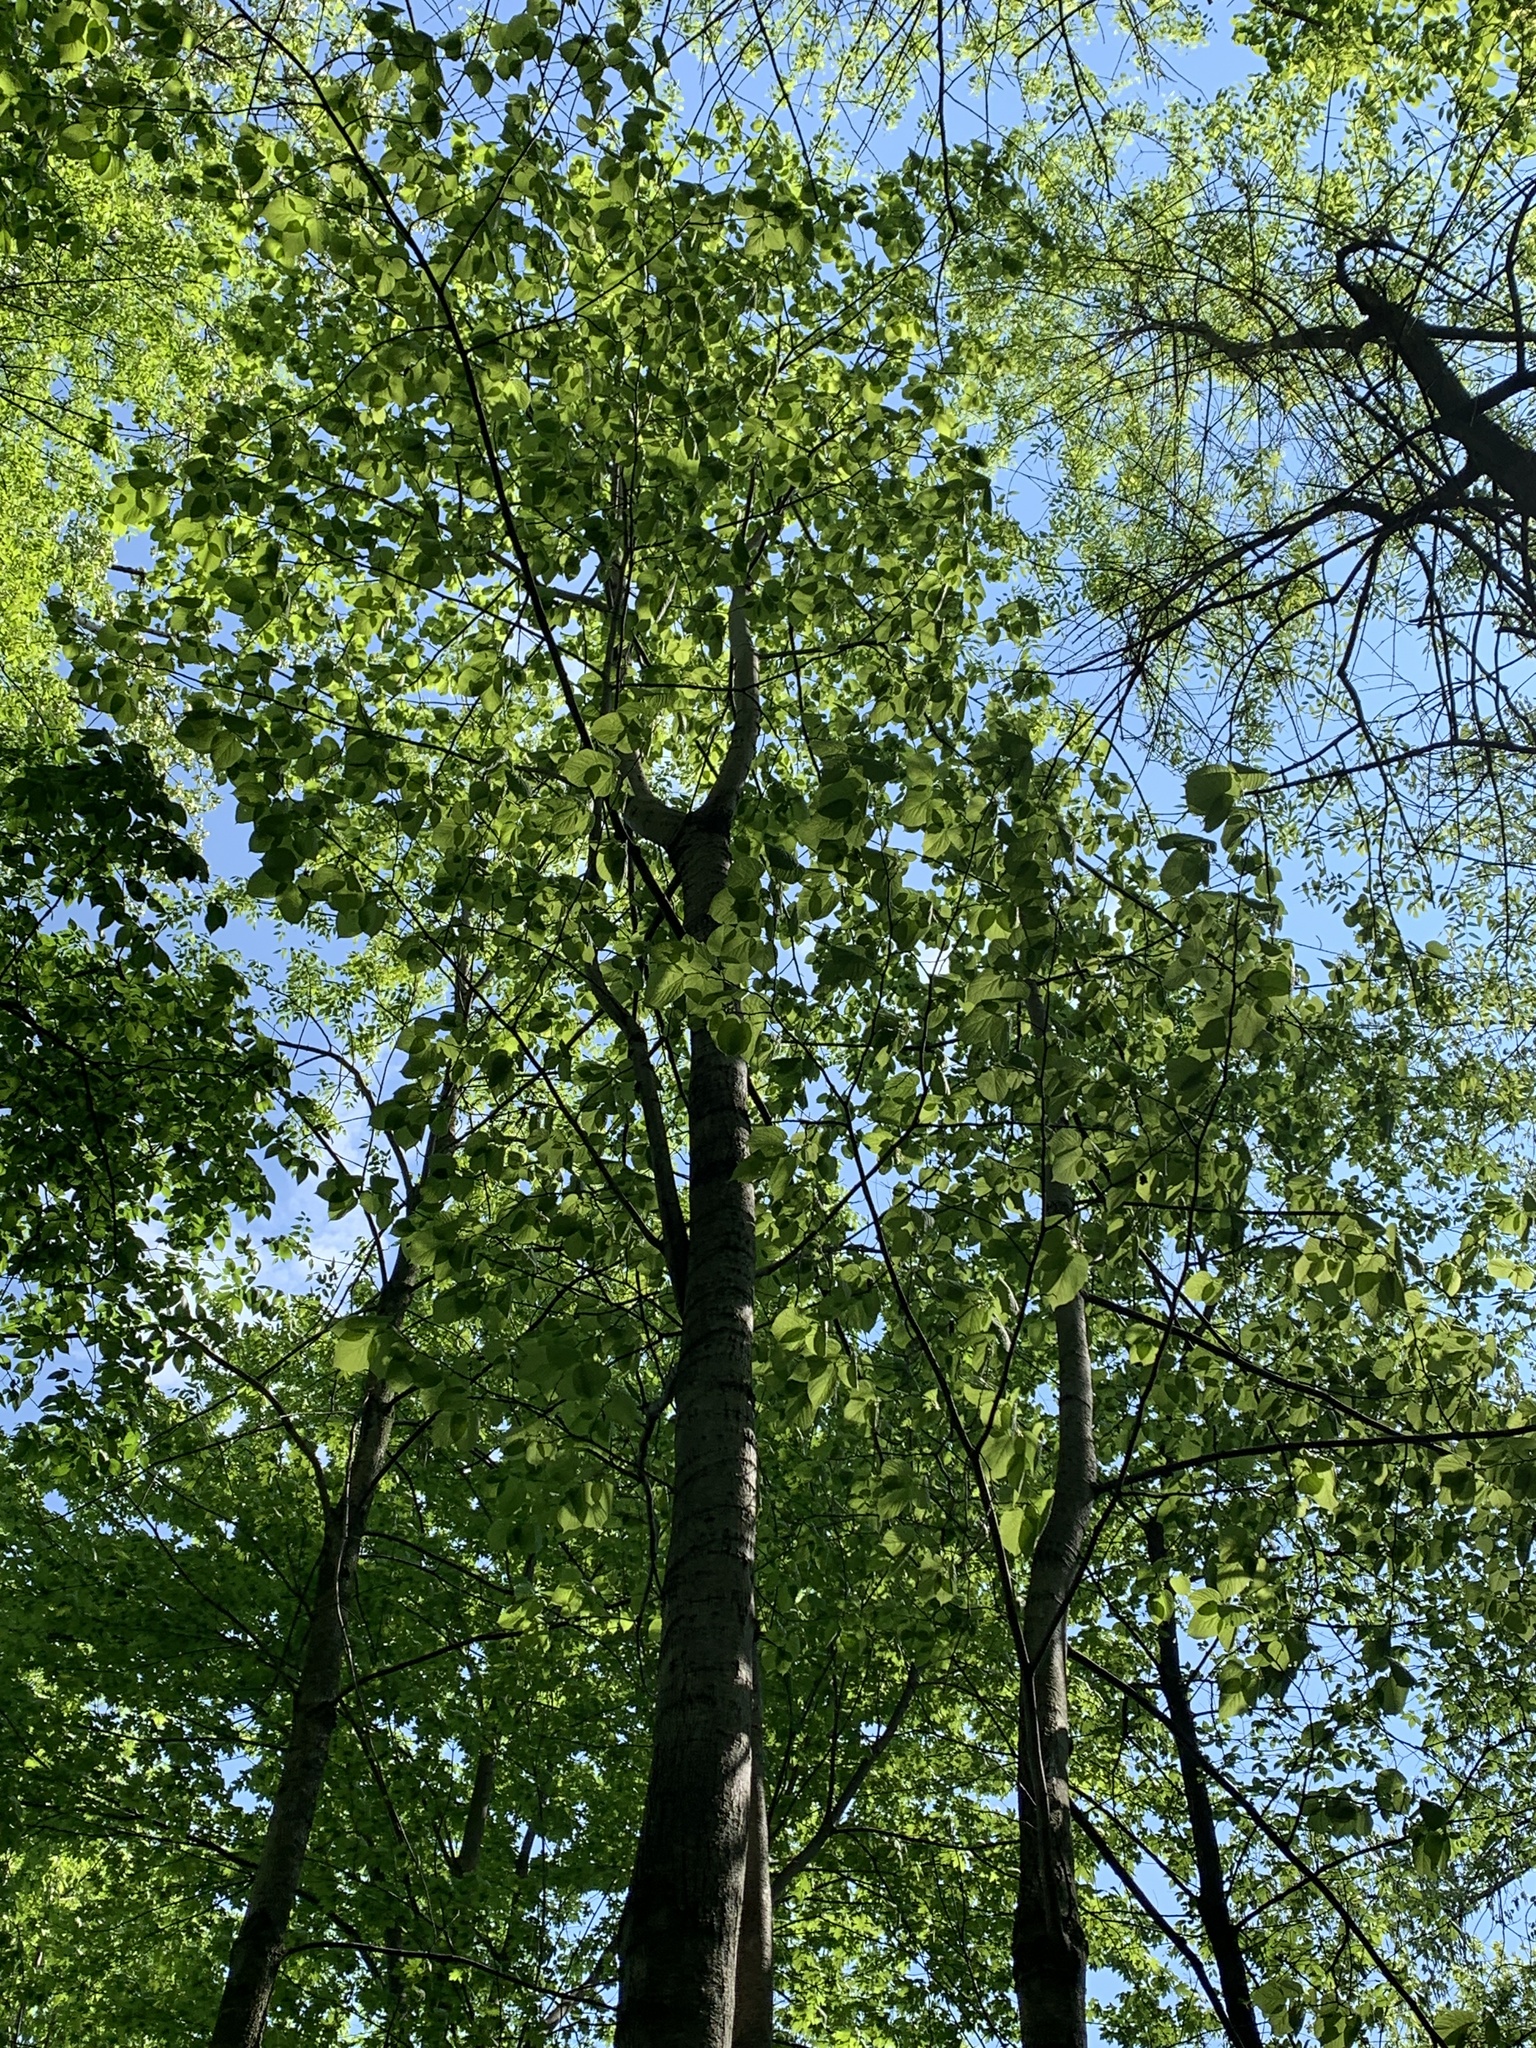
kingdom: Plantae
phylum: Tracheophyta
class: Magnoliopsida
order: Malvales
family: Malvaceae
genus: Tilia
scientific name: Tilia americana
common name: Basswood
